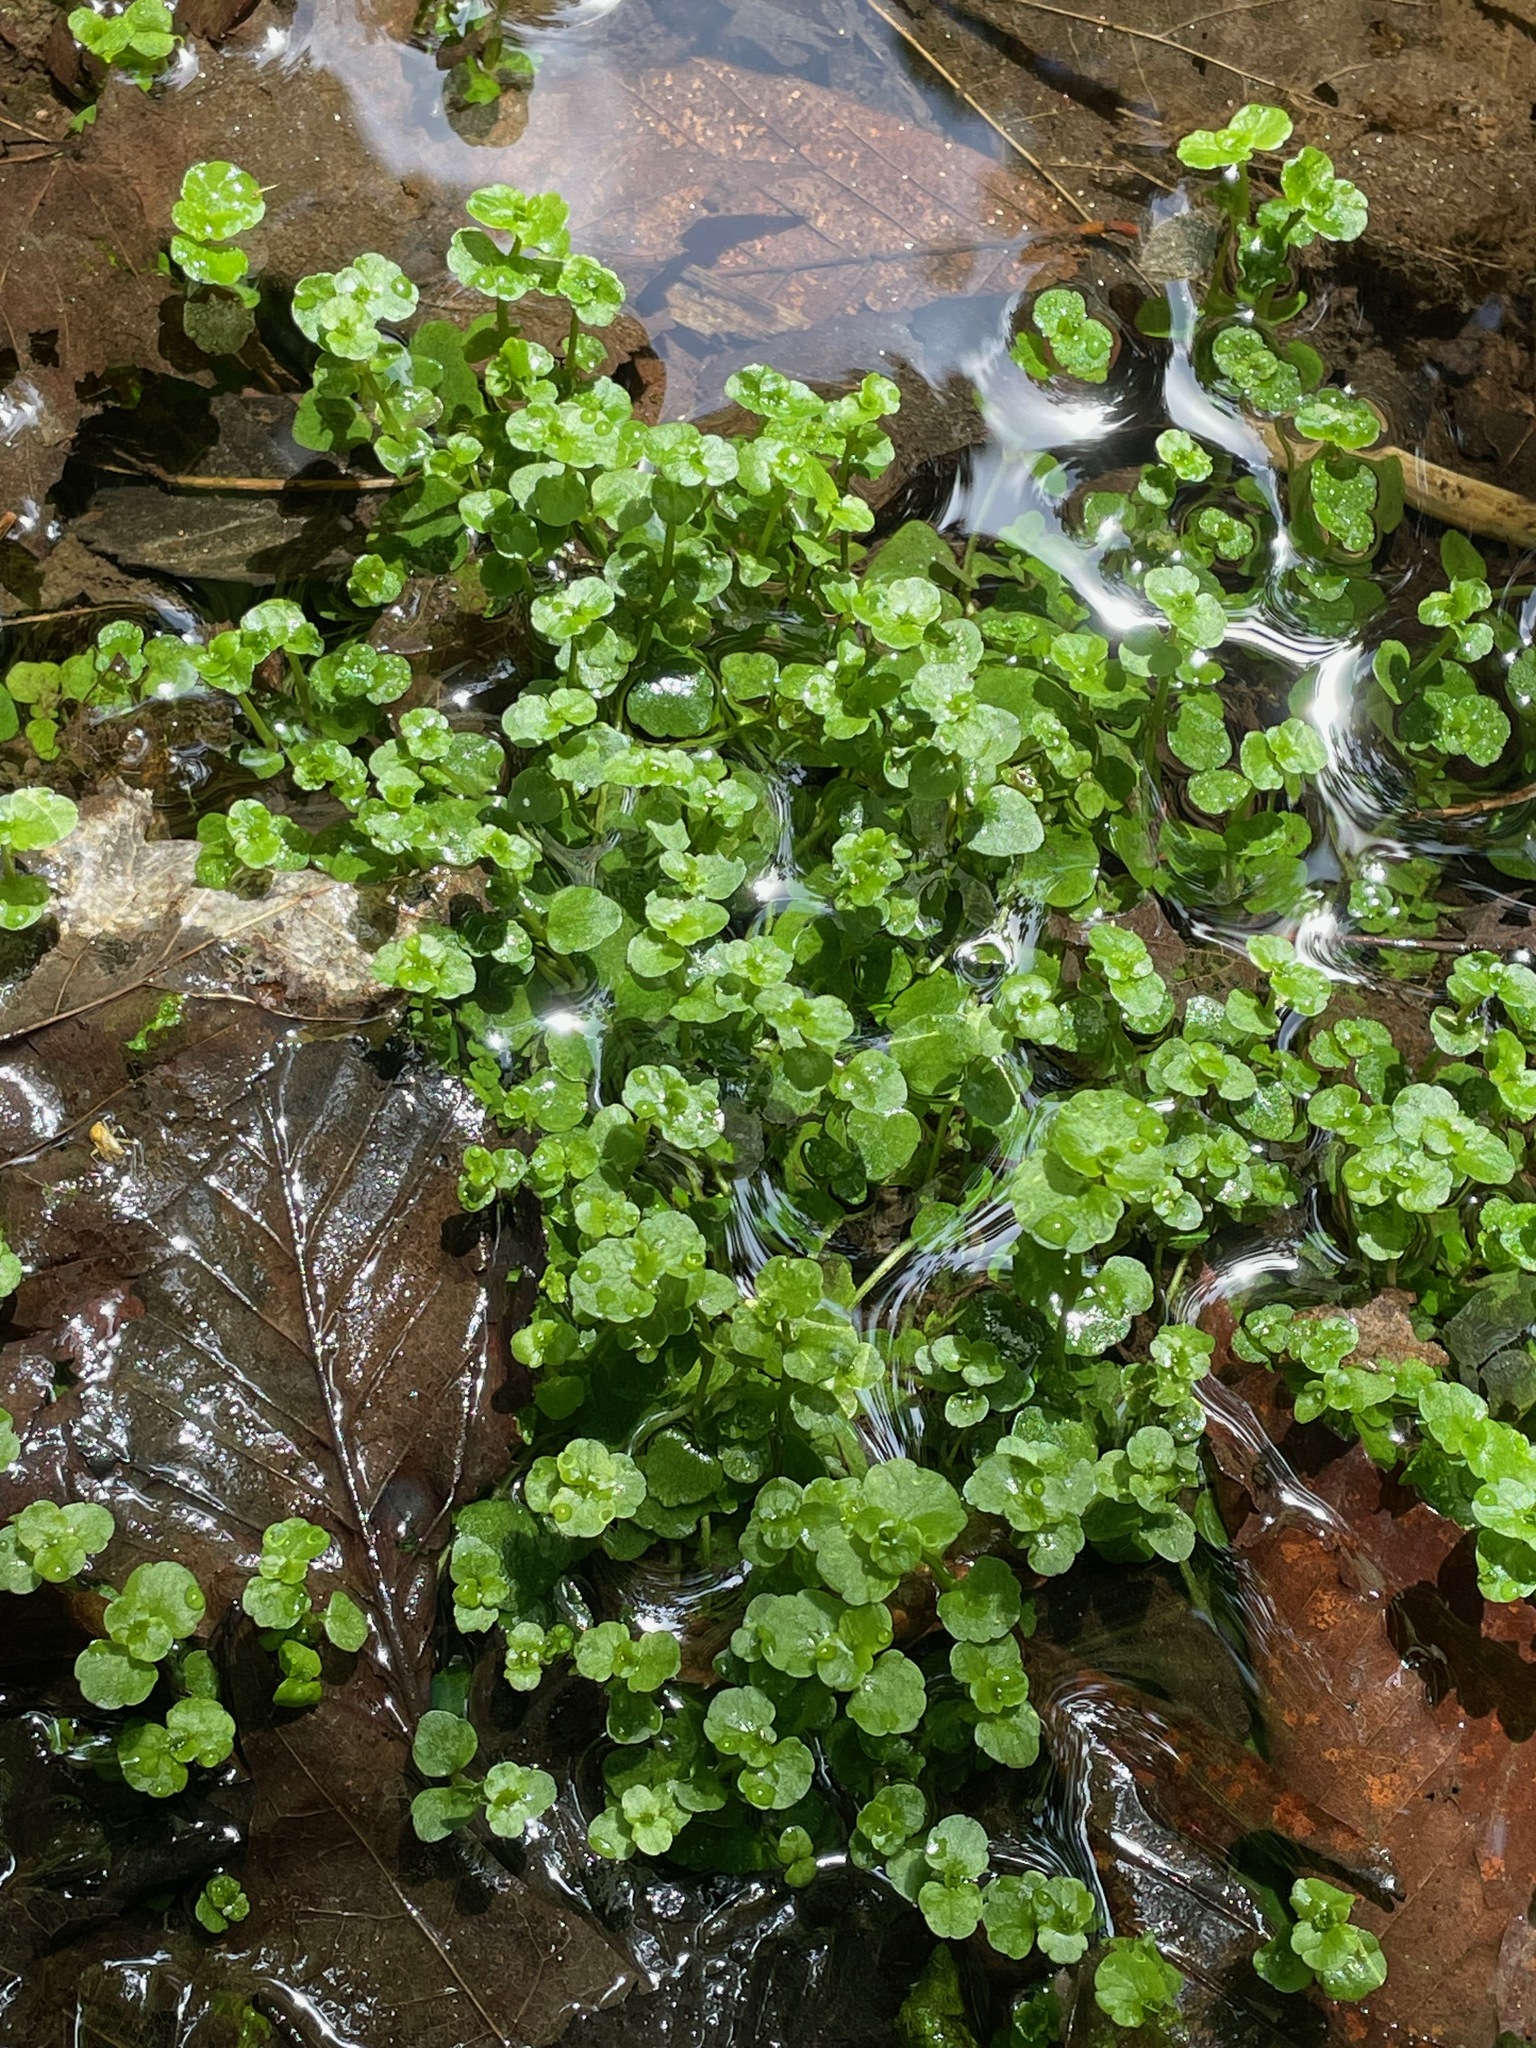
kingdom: Plantae
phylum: Tracheophyta
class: Magnoliopsida
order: Saxifragales
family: Saxifragaceae
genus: Chrysosplenium
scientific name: Chrysosplenium americanum
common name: American golden-saxifrage
